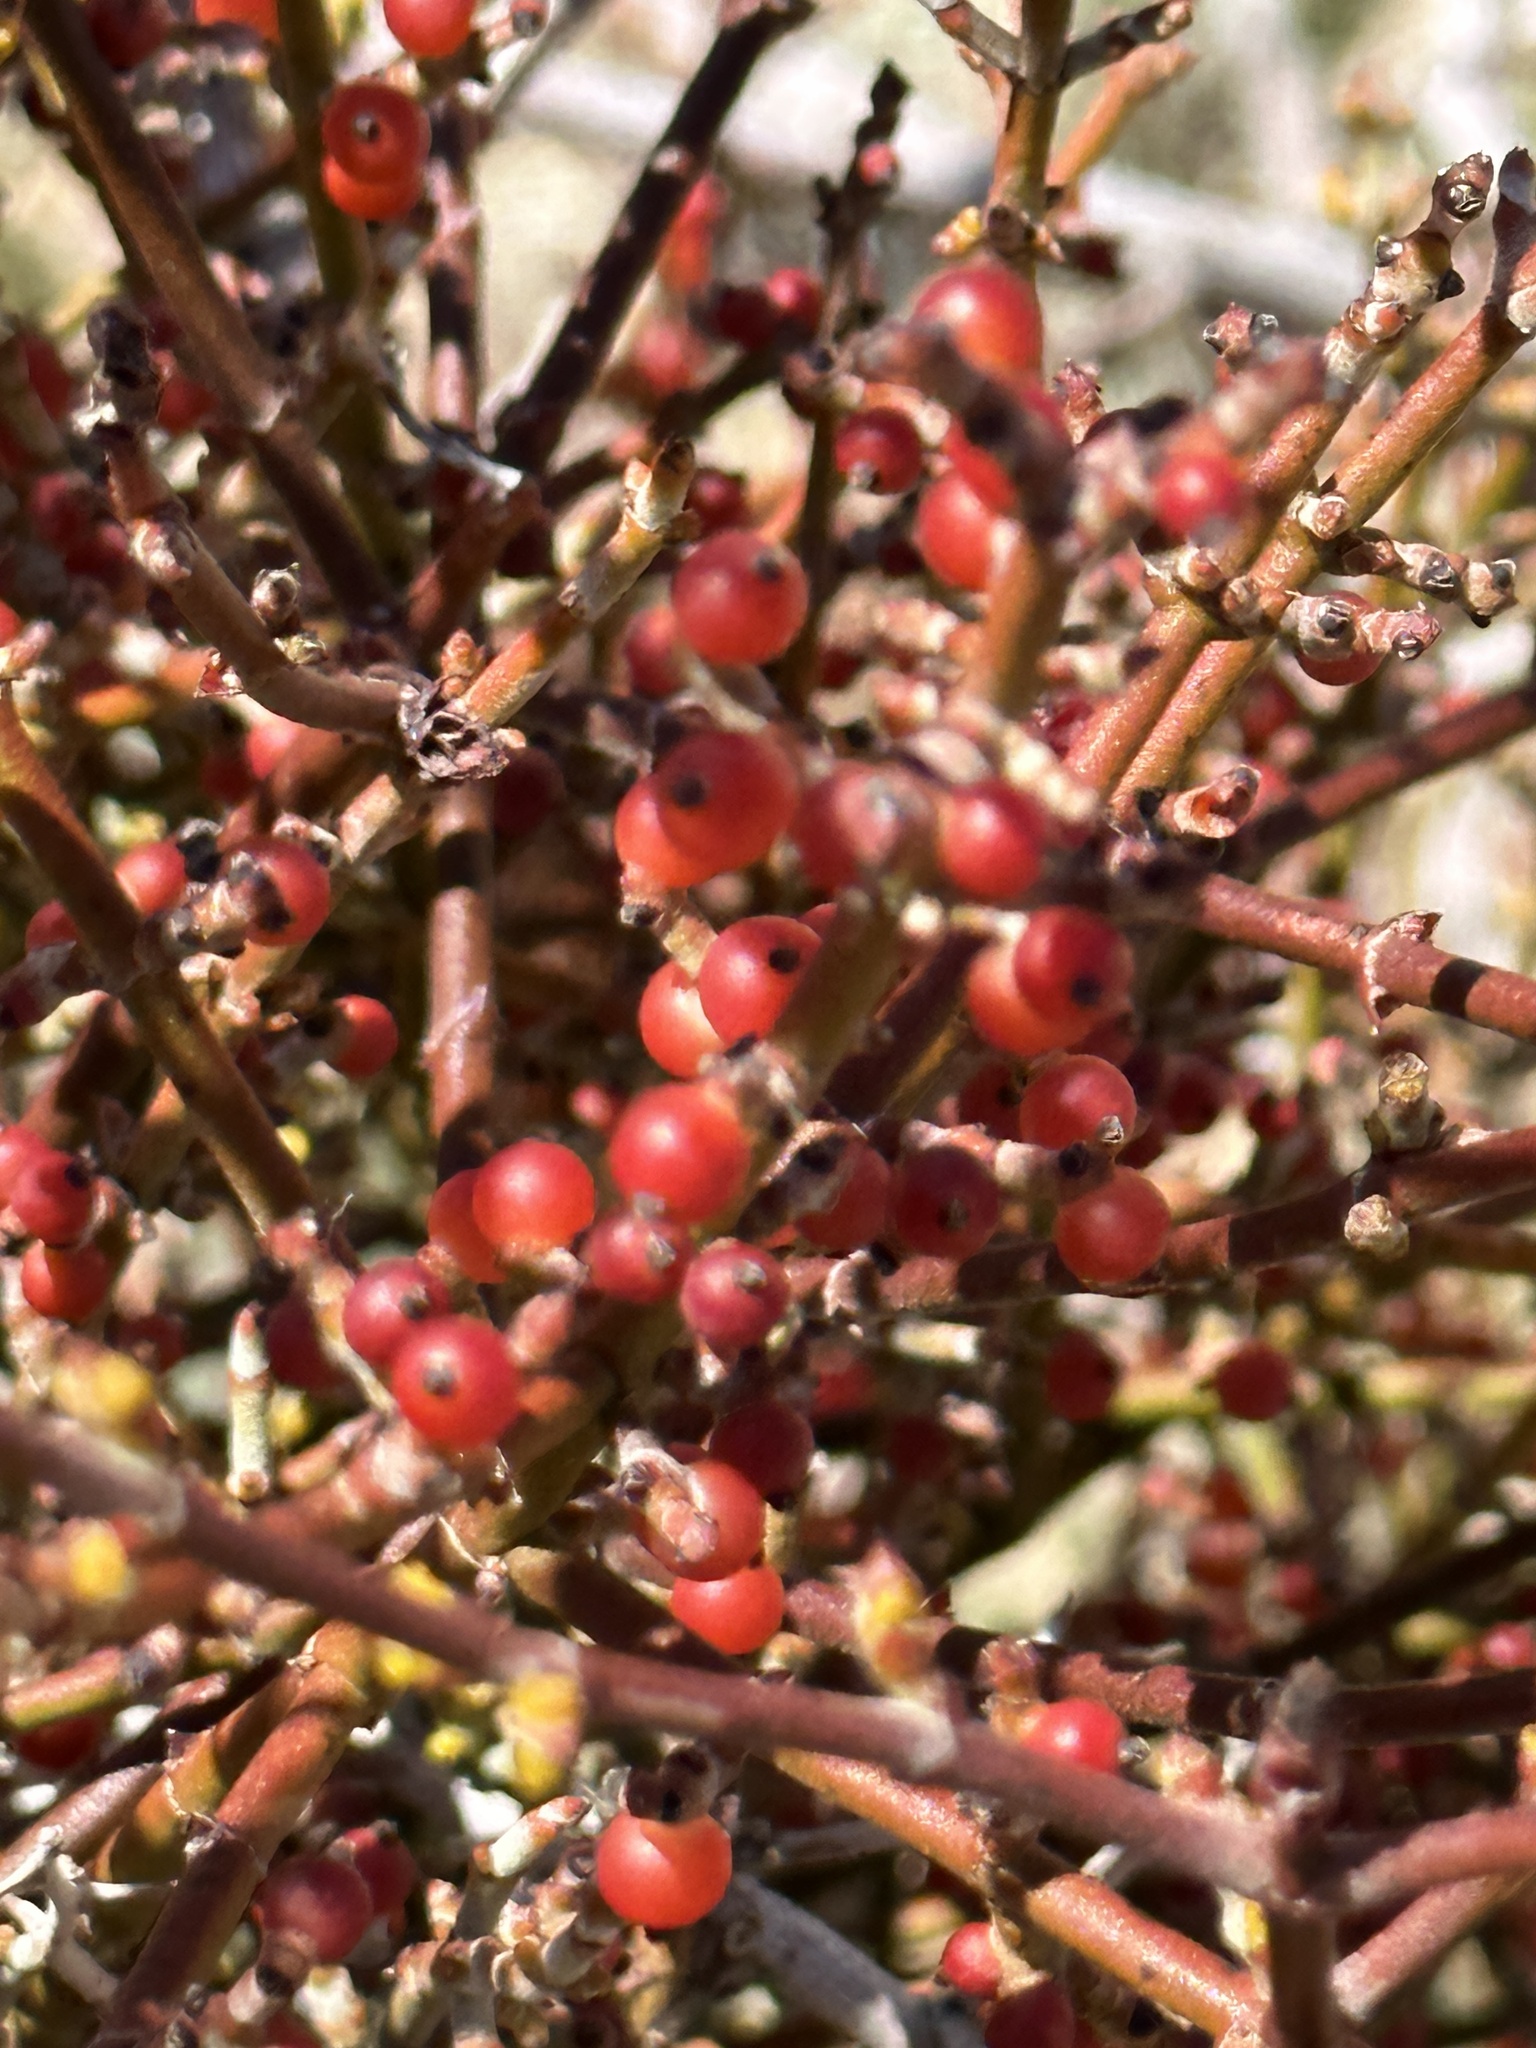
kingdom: Plantae
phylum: Tracheophyta
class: Magnoliopsida
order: Santalales
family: Viscaceae
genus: Phoradendron
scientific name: Phoradendron californicum
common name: Acacia mistletoe
